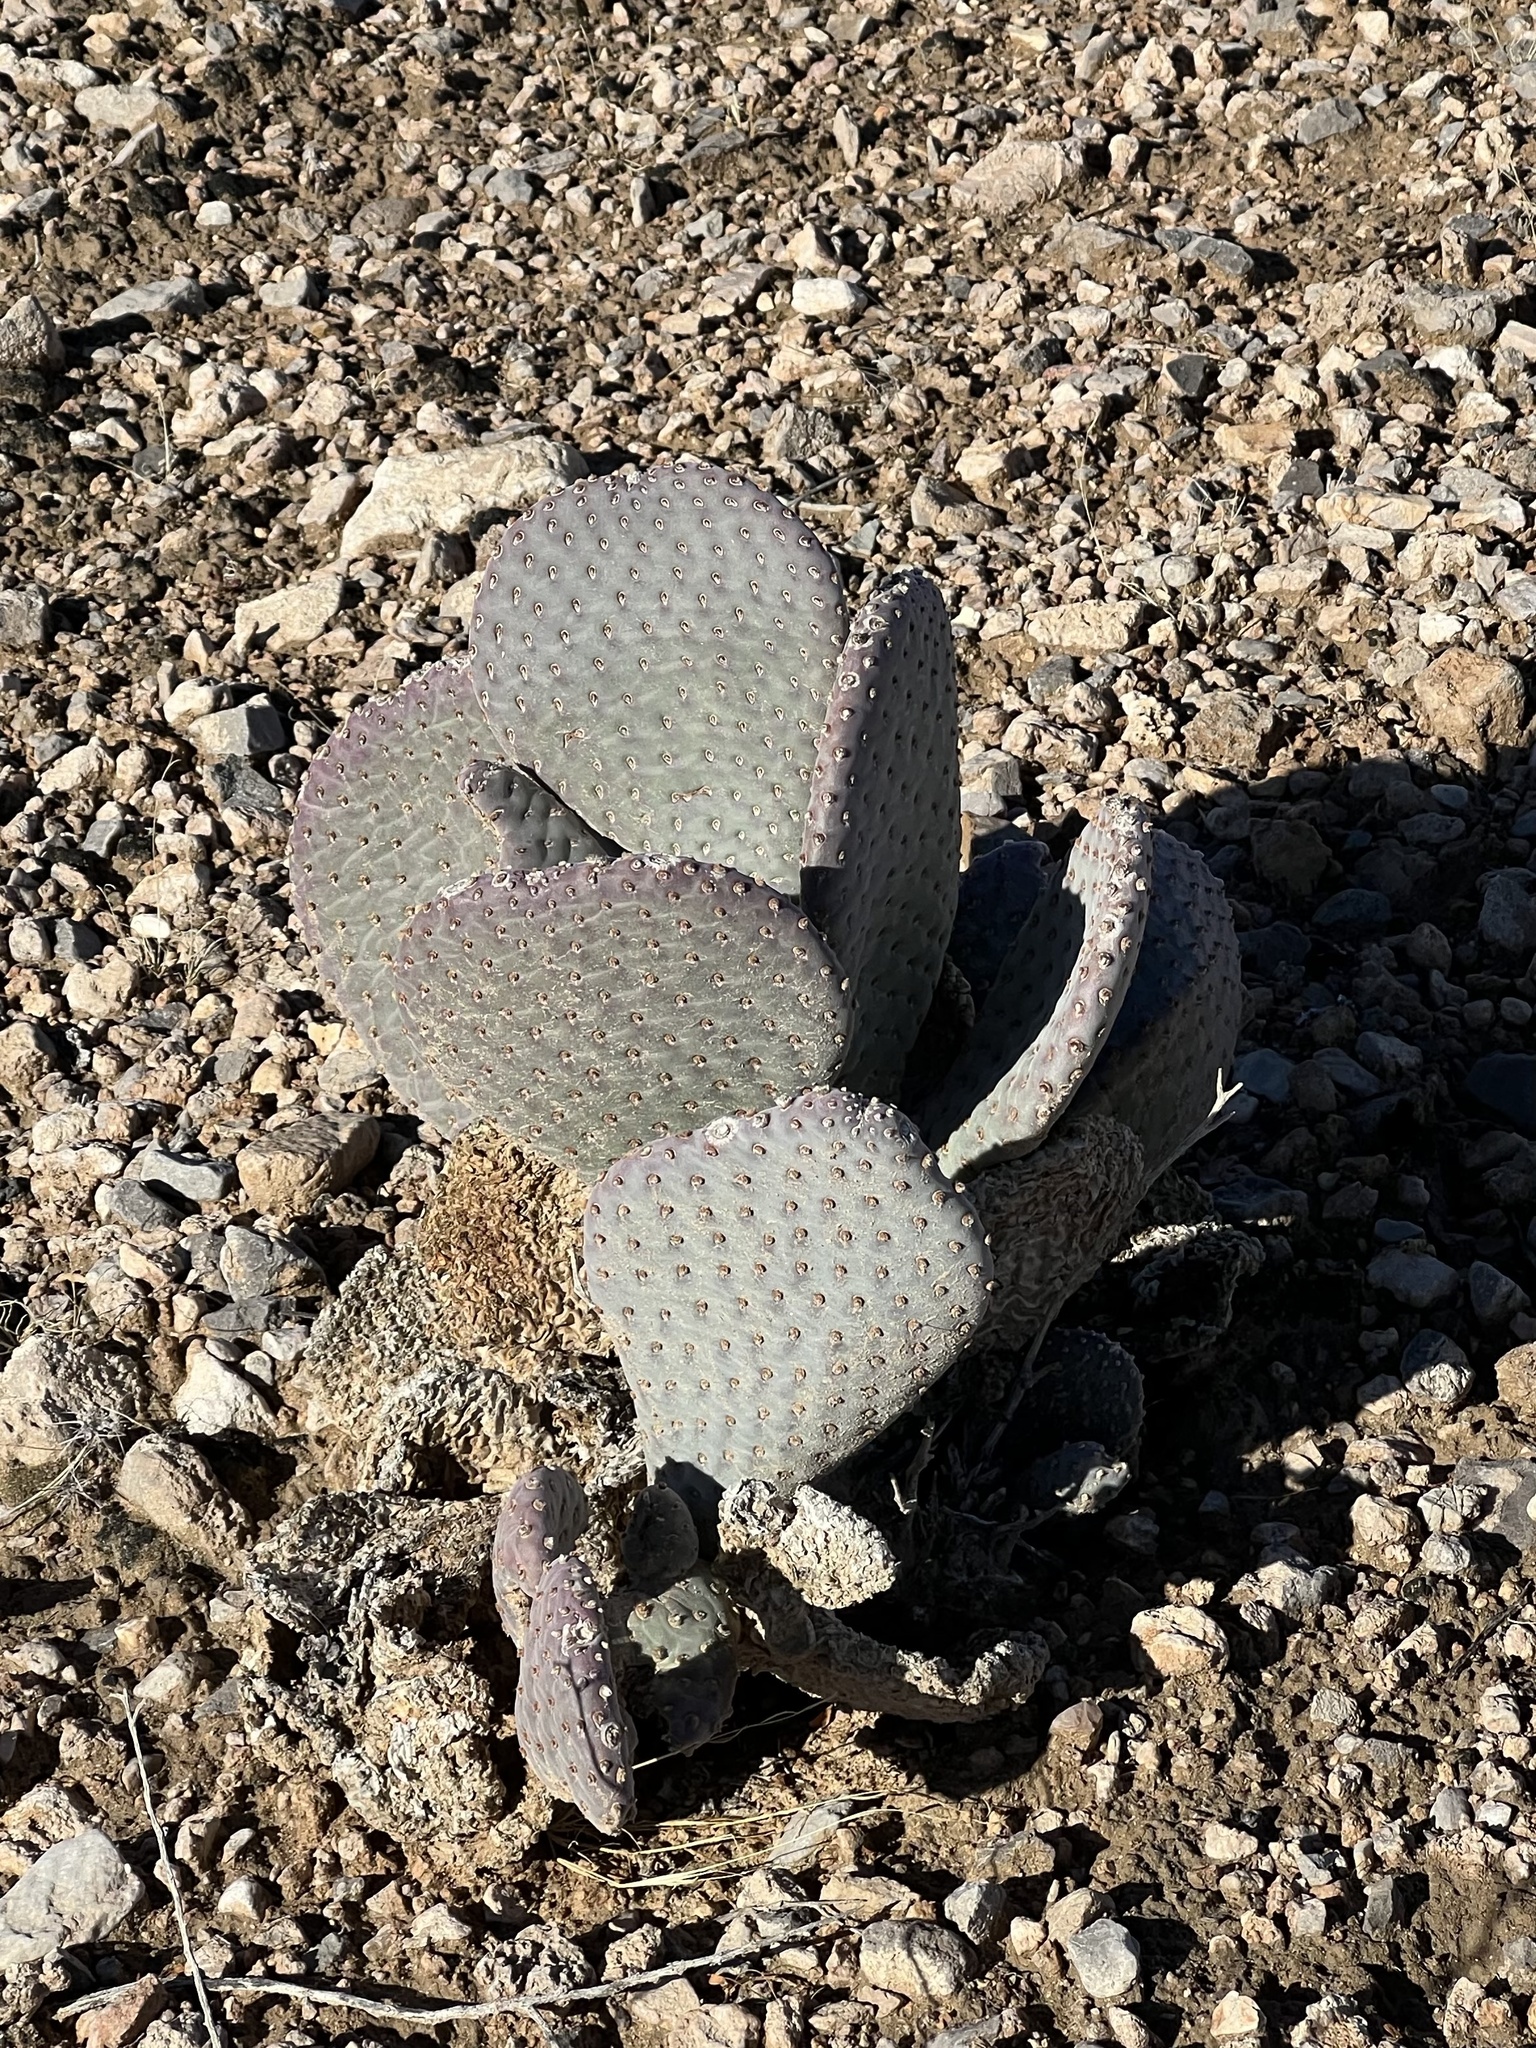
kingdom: Plantae
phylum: Tracheophyta
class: Magnoliopsida
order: Caryophyllales
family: Cactaceae
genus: Opuntia
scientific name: Opuntia basilaris
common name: Beavertail prickly-pear
